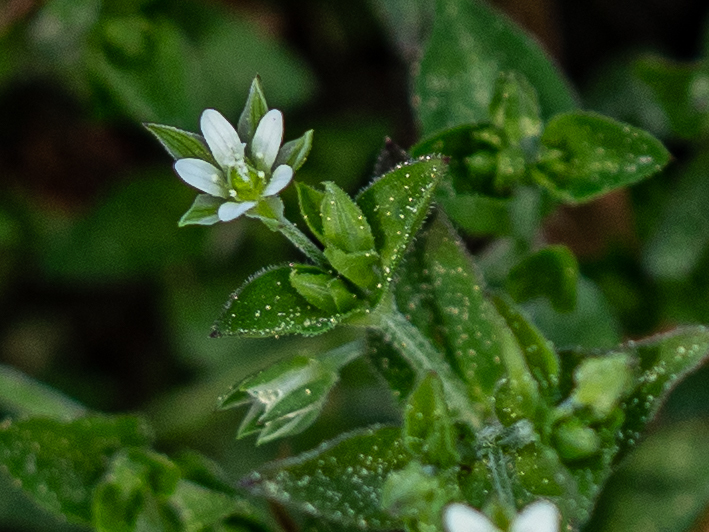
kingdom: Plantae
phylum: Tracheophyta
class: Magnoliopsida
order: Caryophyllales
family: Caryophyllaceae
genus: Moehringia
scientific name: Moehringia trinervia
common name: Three-nerved sandwort
